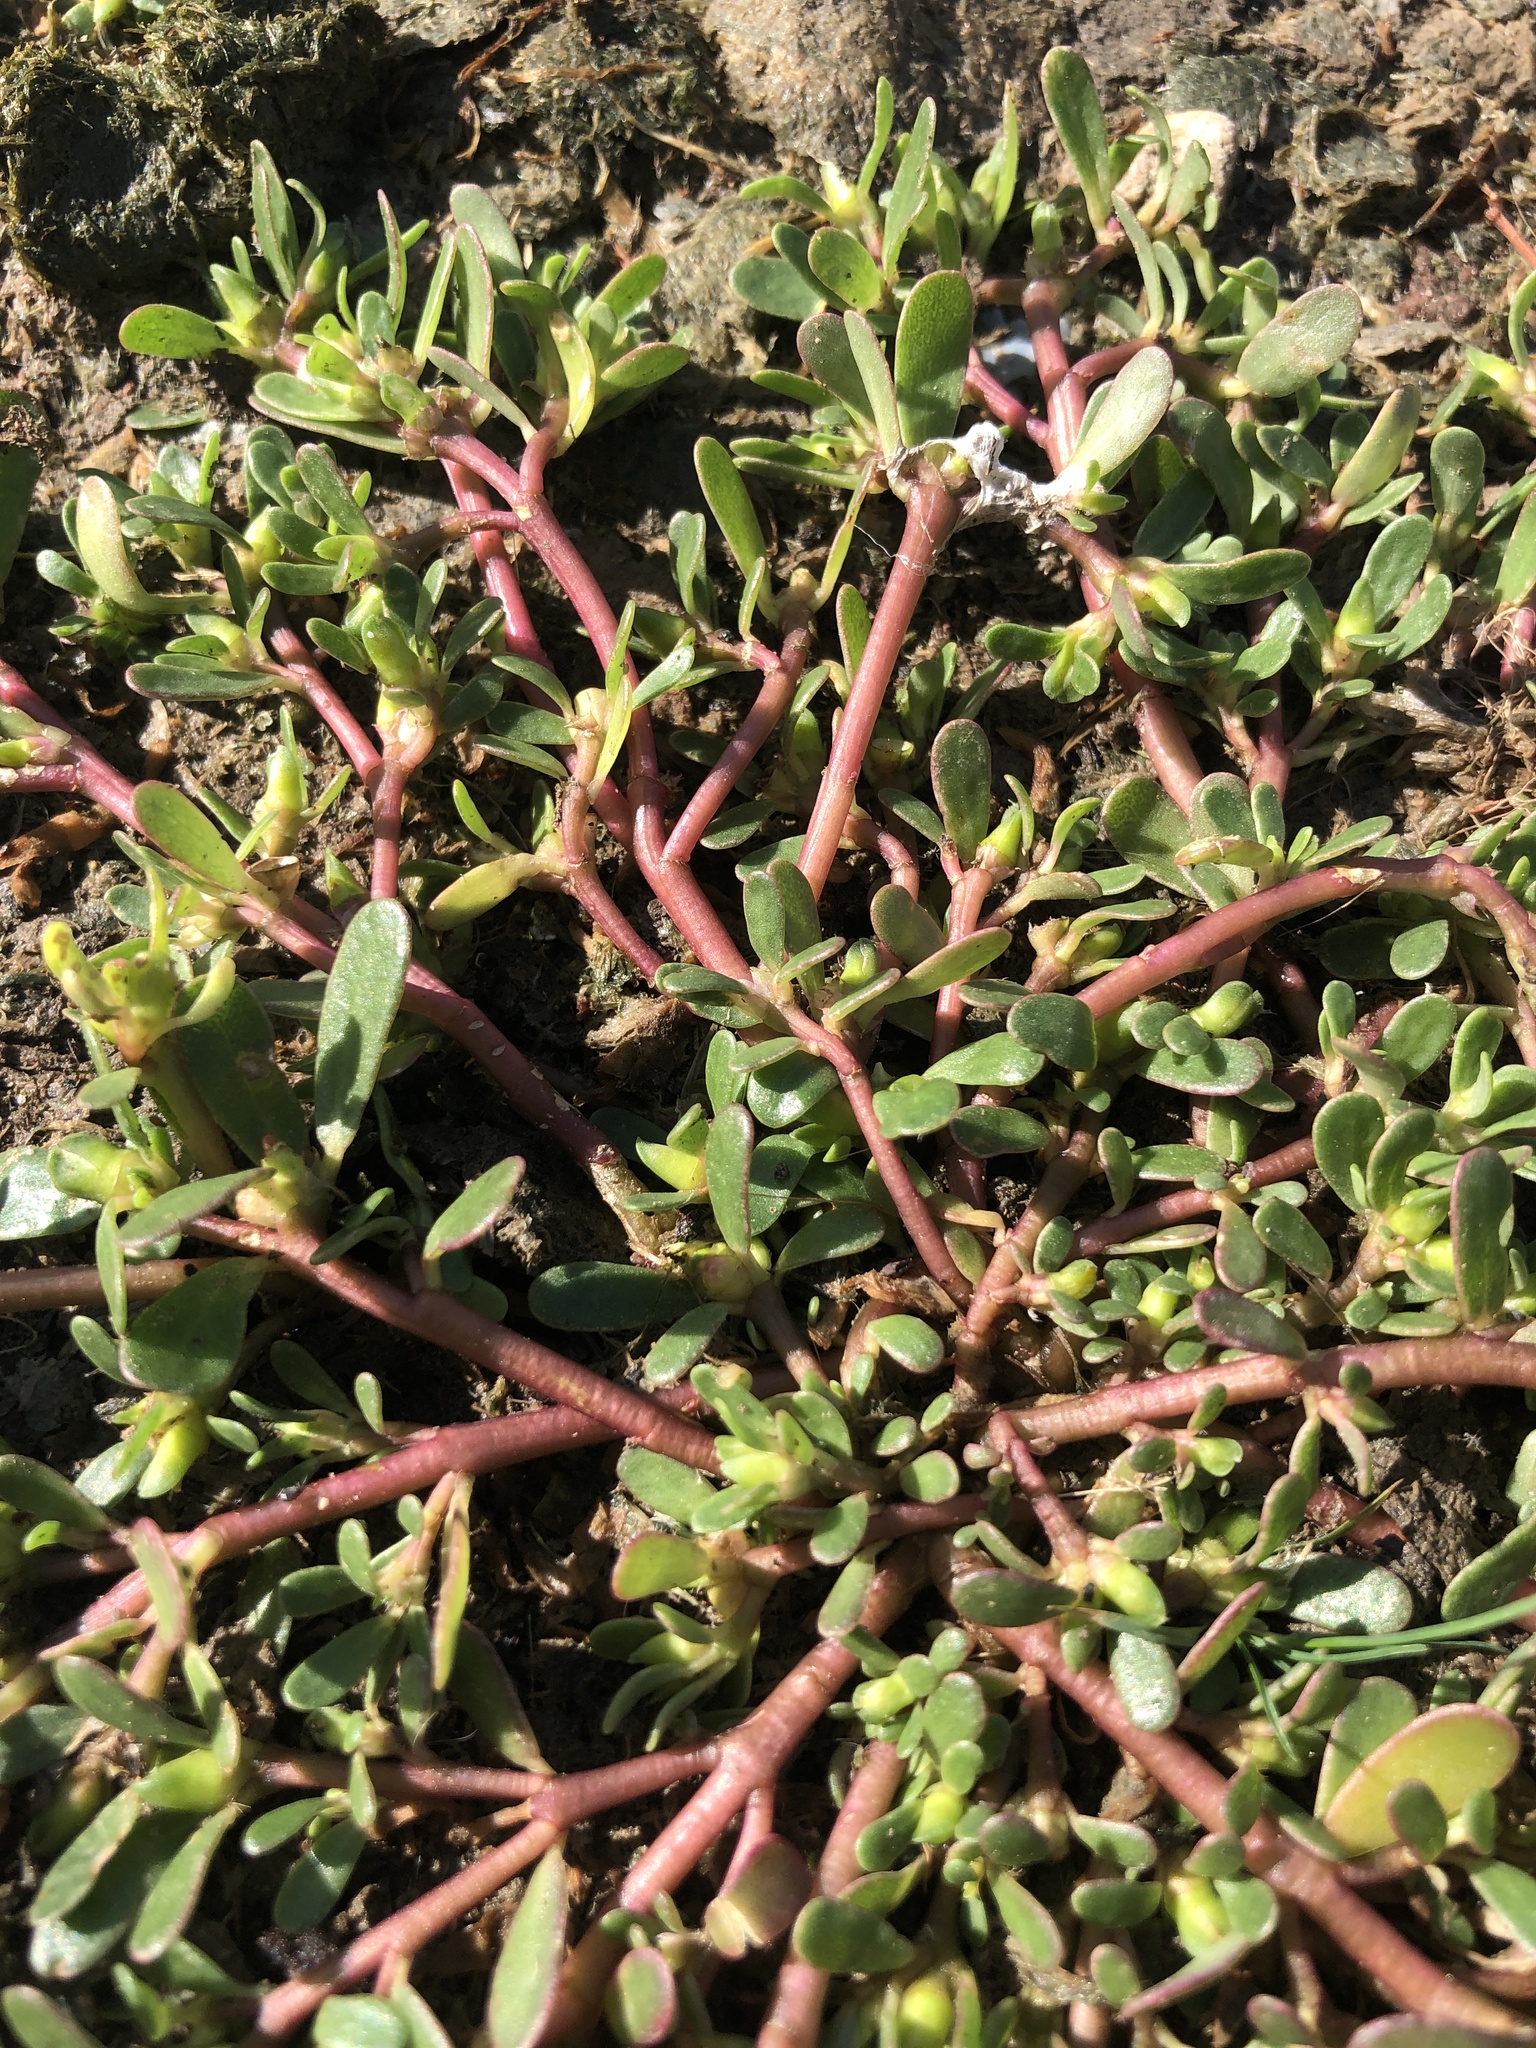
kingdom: Plantae
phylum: Tracheophyta
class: Magnoliopsida
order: Caryophyllales
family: Portulacaceae
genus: Portulaca
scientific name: Portulaca oleracea
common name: Common purslane
